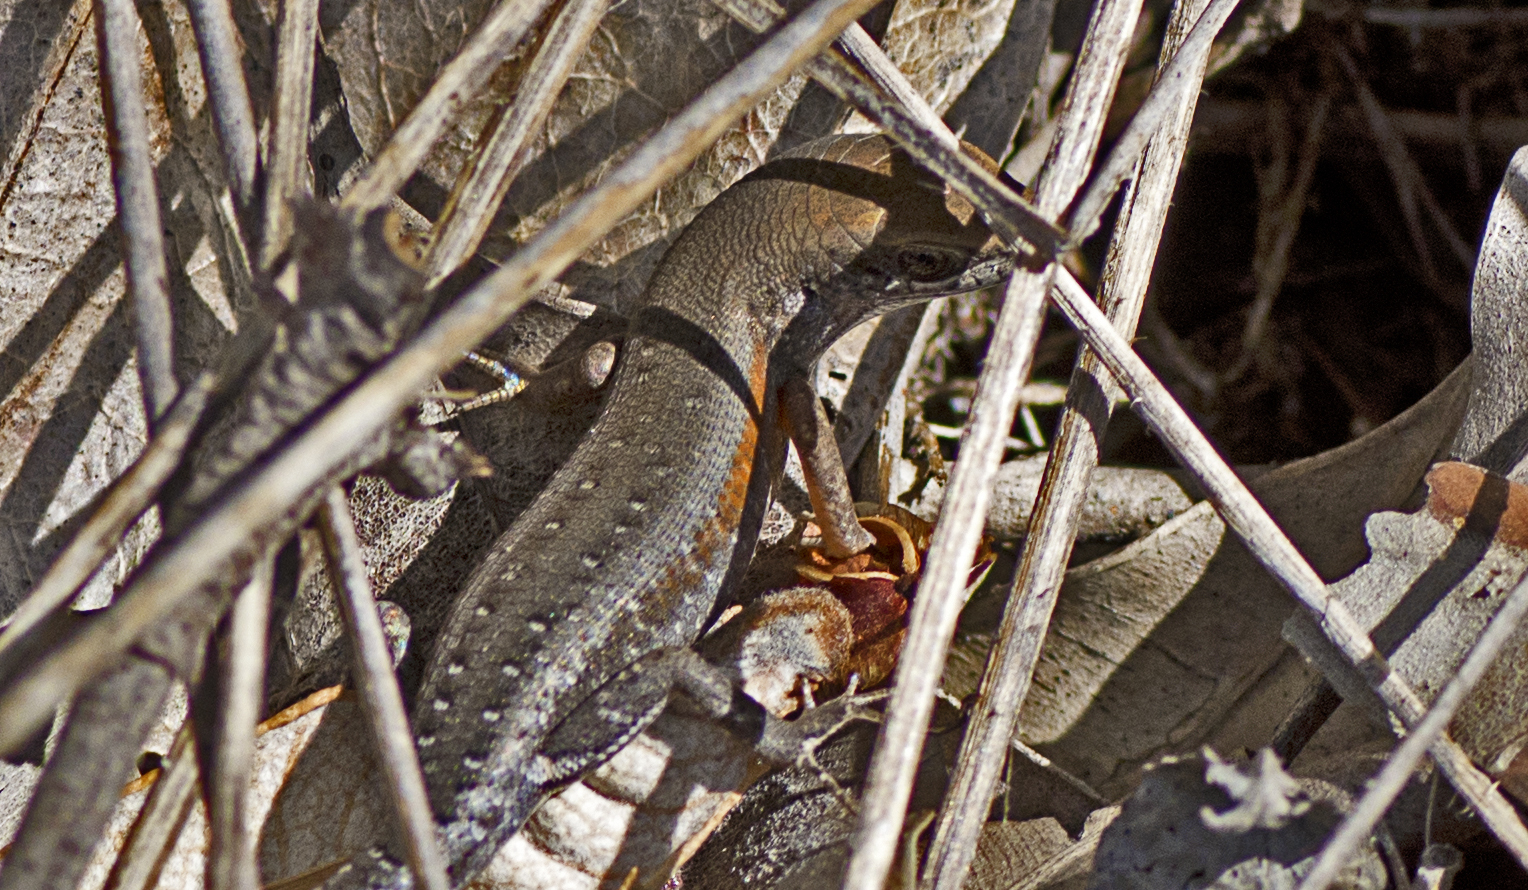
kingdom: Animalia
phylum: Chordata
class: Squamata
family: Scincidae
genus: Carlia
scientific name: Carlia pectoralis
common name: Open-litter rainbow-skink
